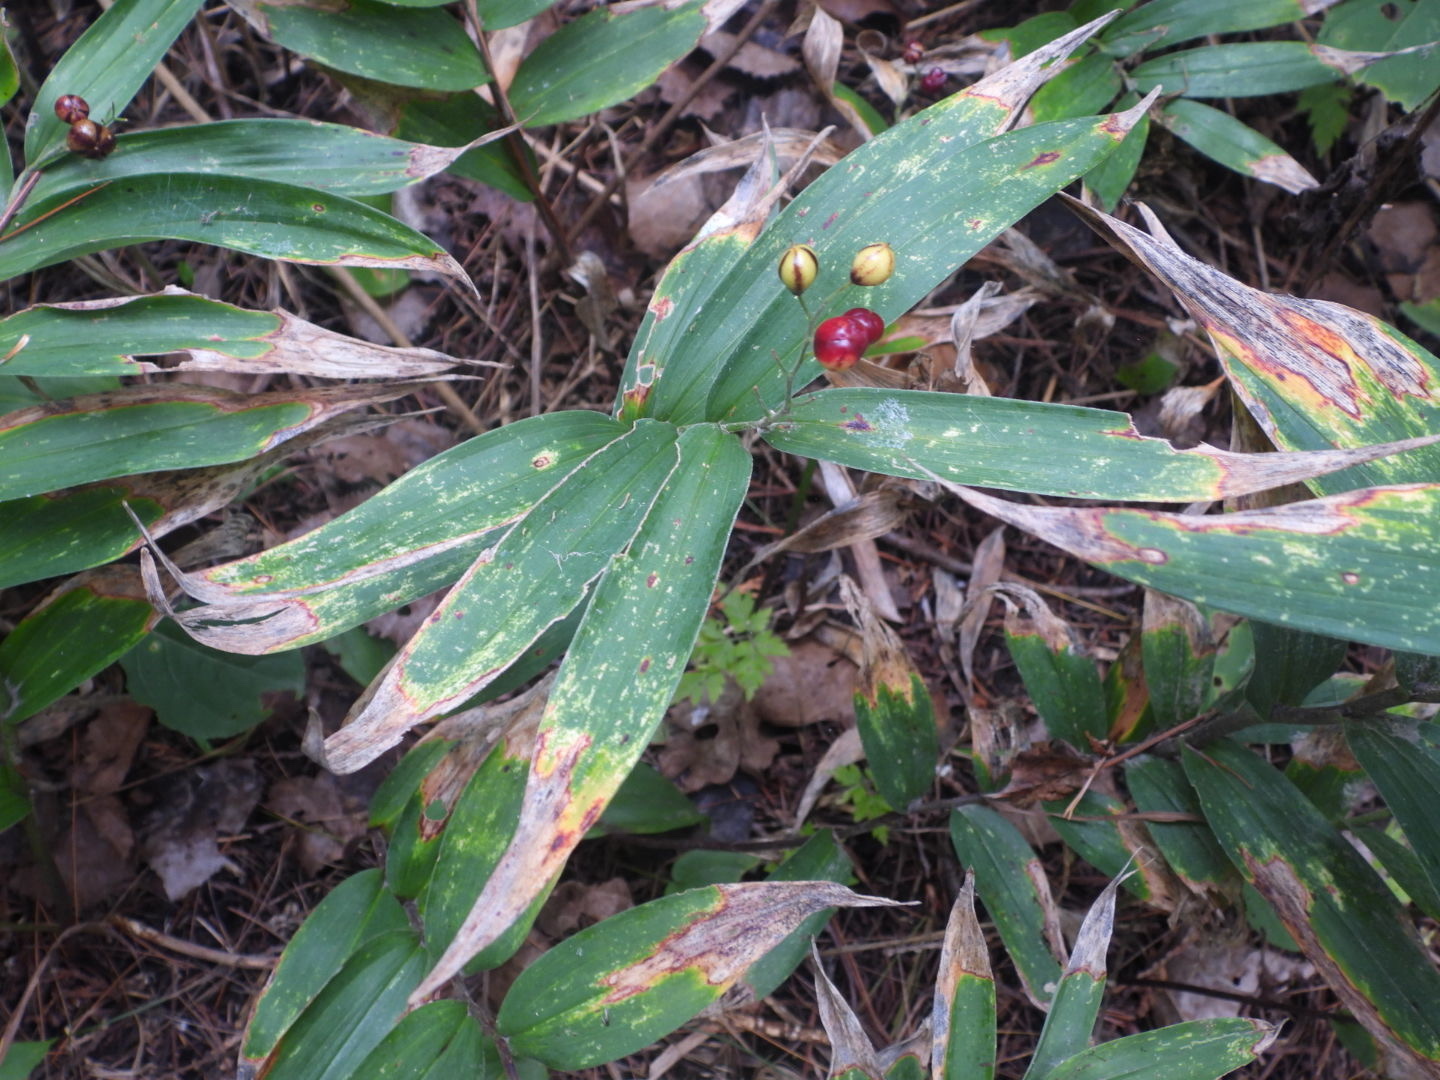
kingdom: Plantae
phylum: Tracheophyta
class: Liliopsida
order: Asparagales
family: Asparagaceae
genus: Maianthemum
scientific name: Maianthemum stellatum
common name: Little false solomon's seal
